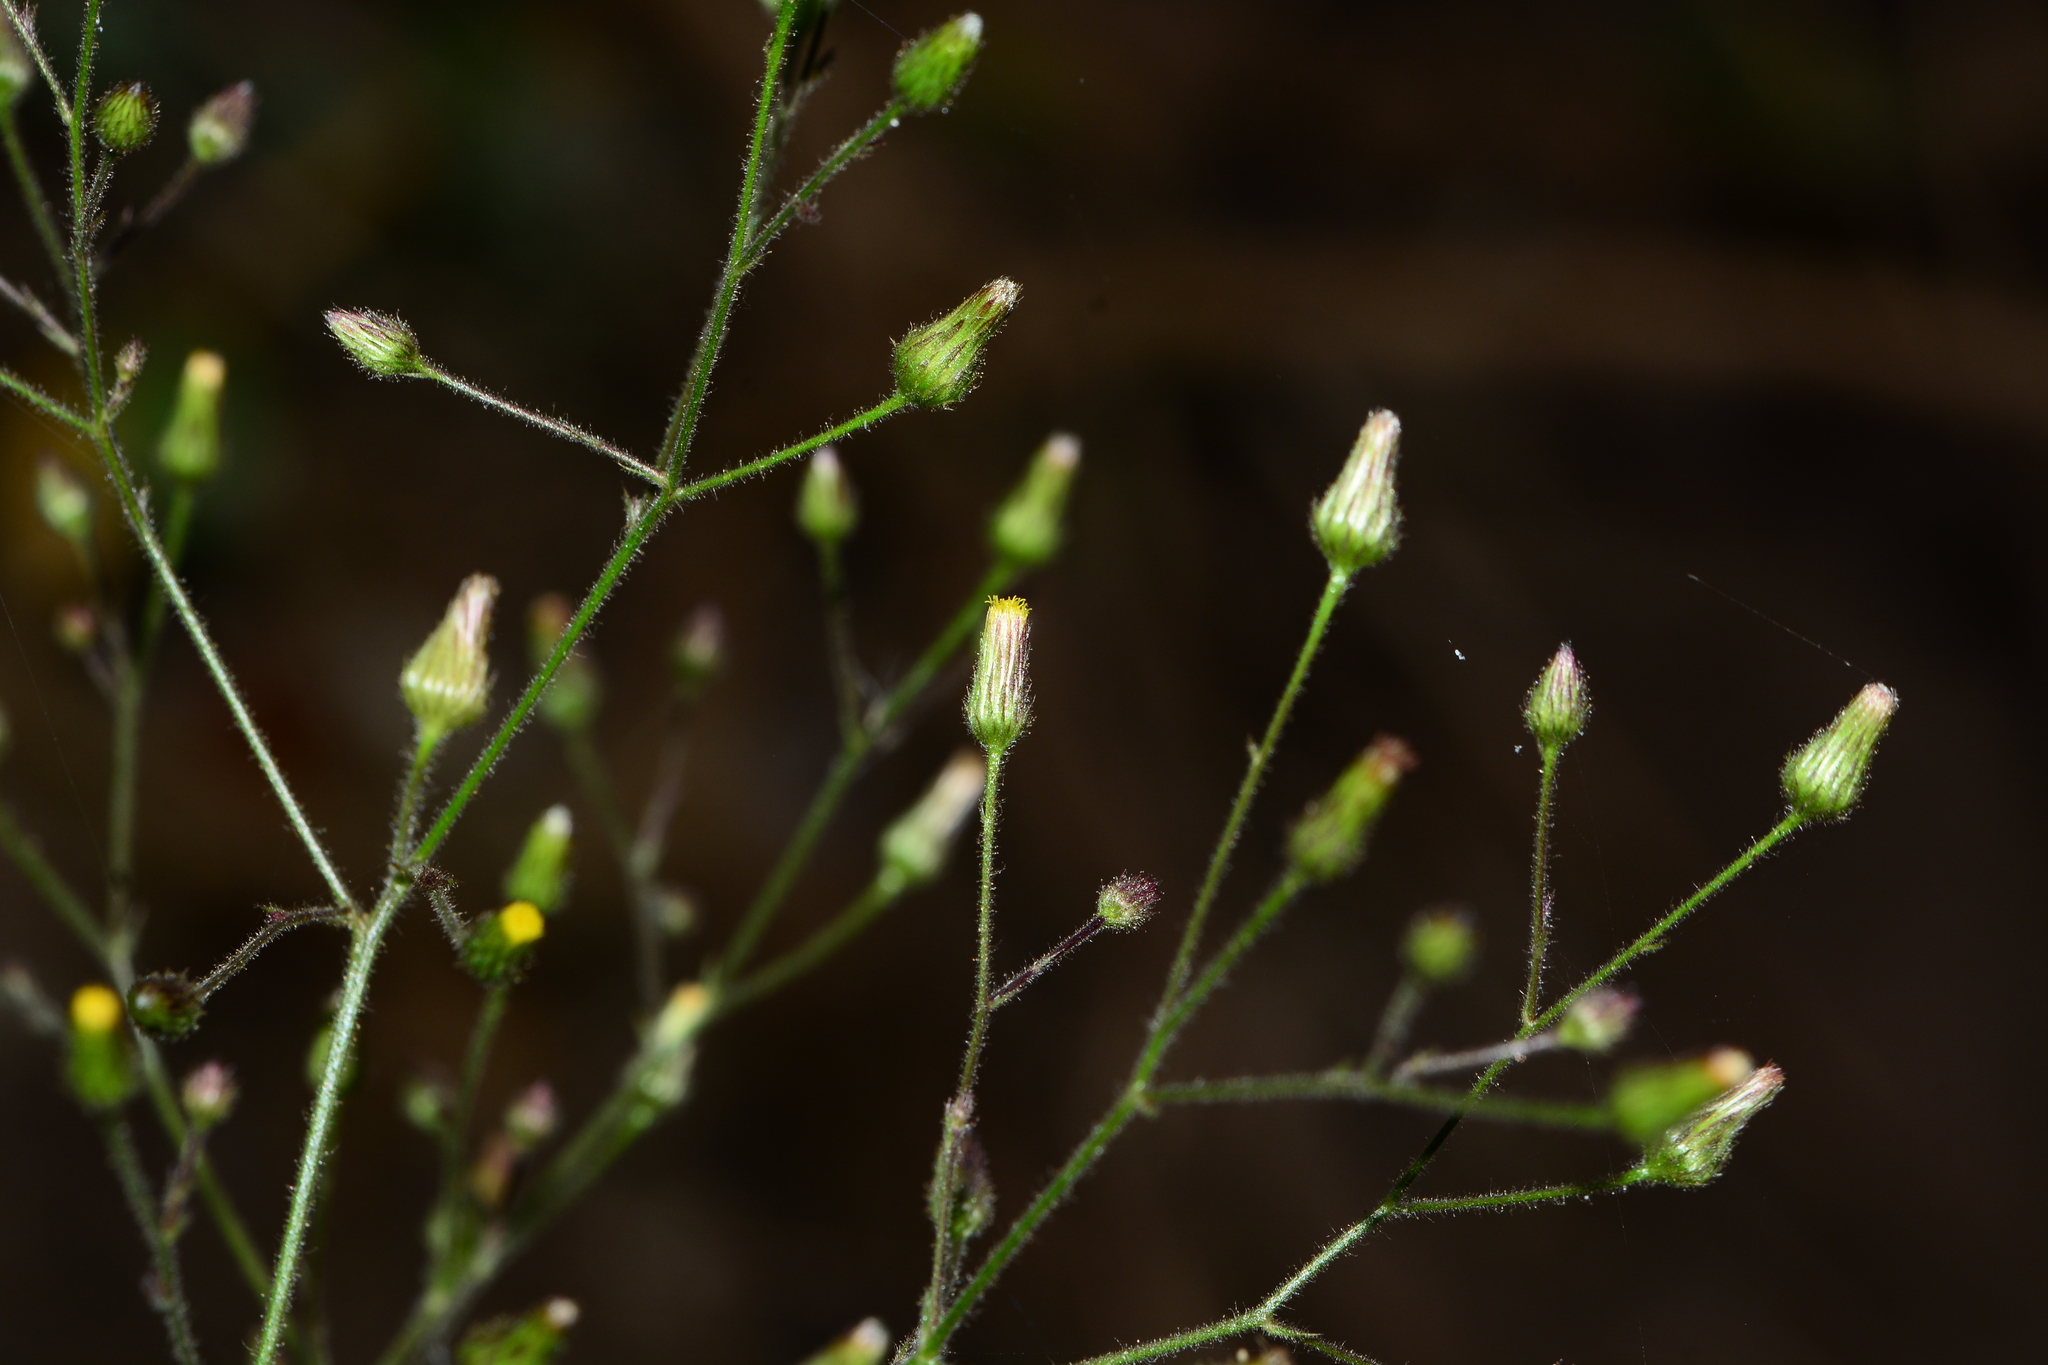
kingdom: Plantae
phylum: Tracheophyta
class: Magnoliopsida
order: Asterales
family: Asteraceae
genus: Pluchea
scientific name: Pluchea paniculata
